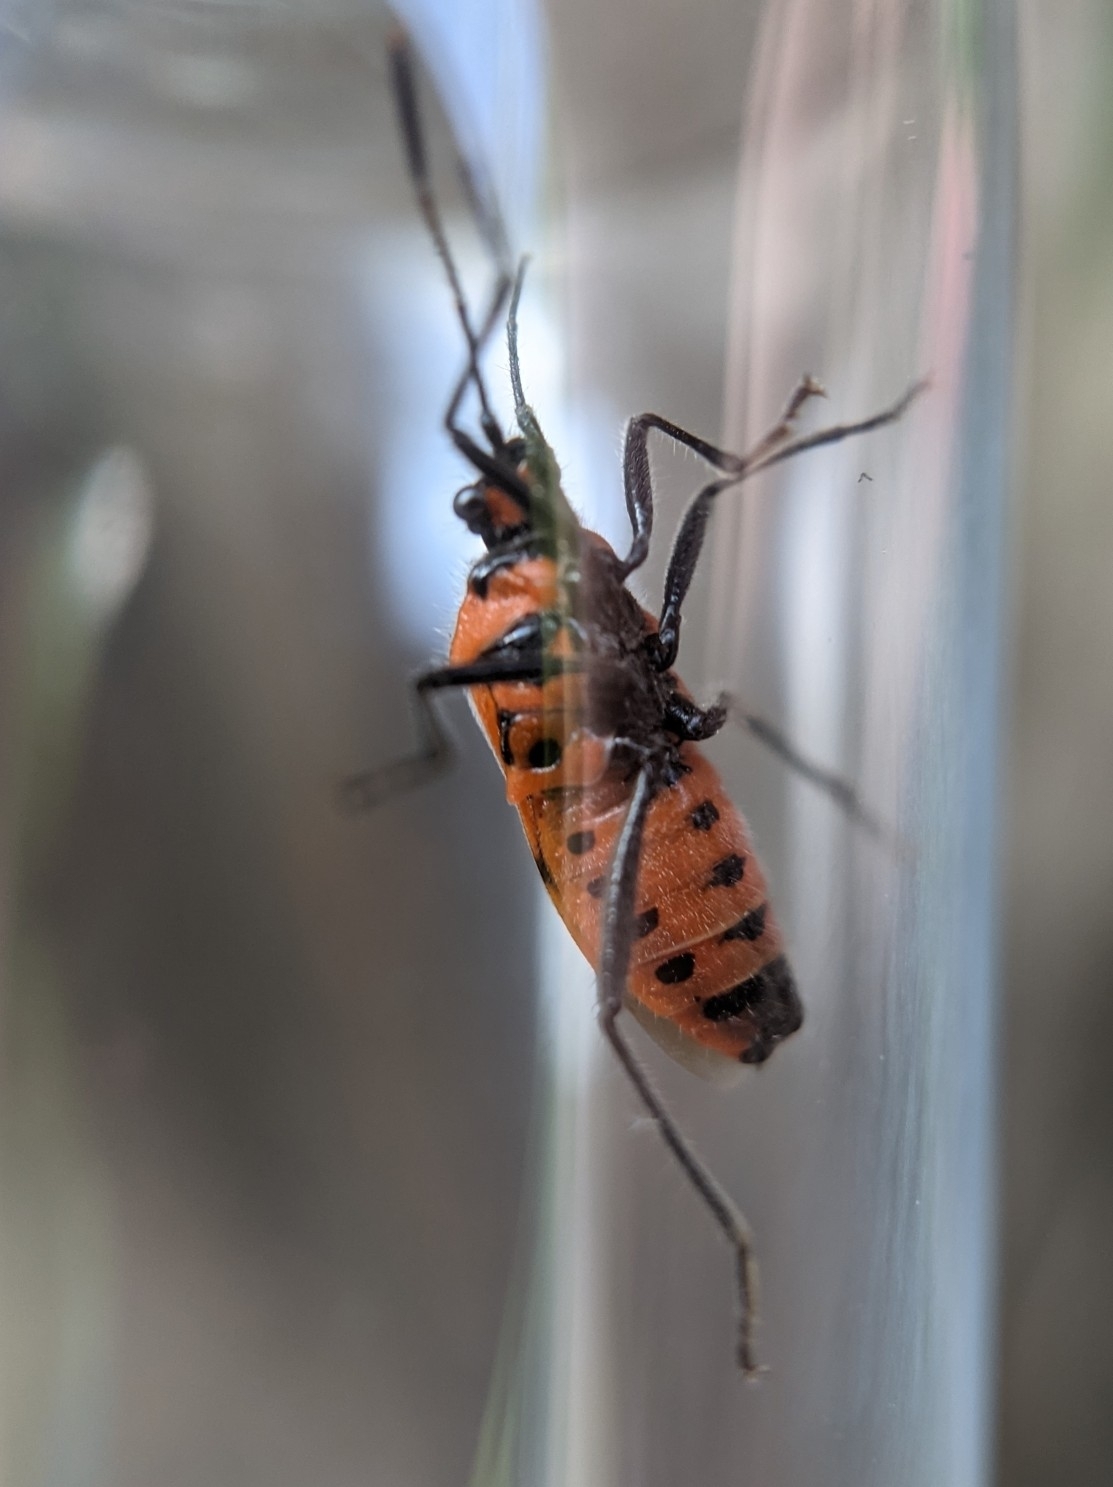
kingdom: Animalia
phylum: Arthropoda
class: Insecta
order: Hemiptera
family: Rhopalidae
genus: Corizus
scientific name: Corizus hyoscyami
